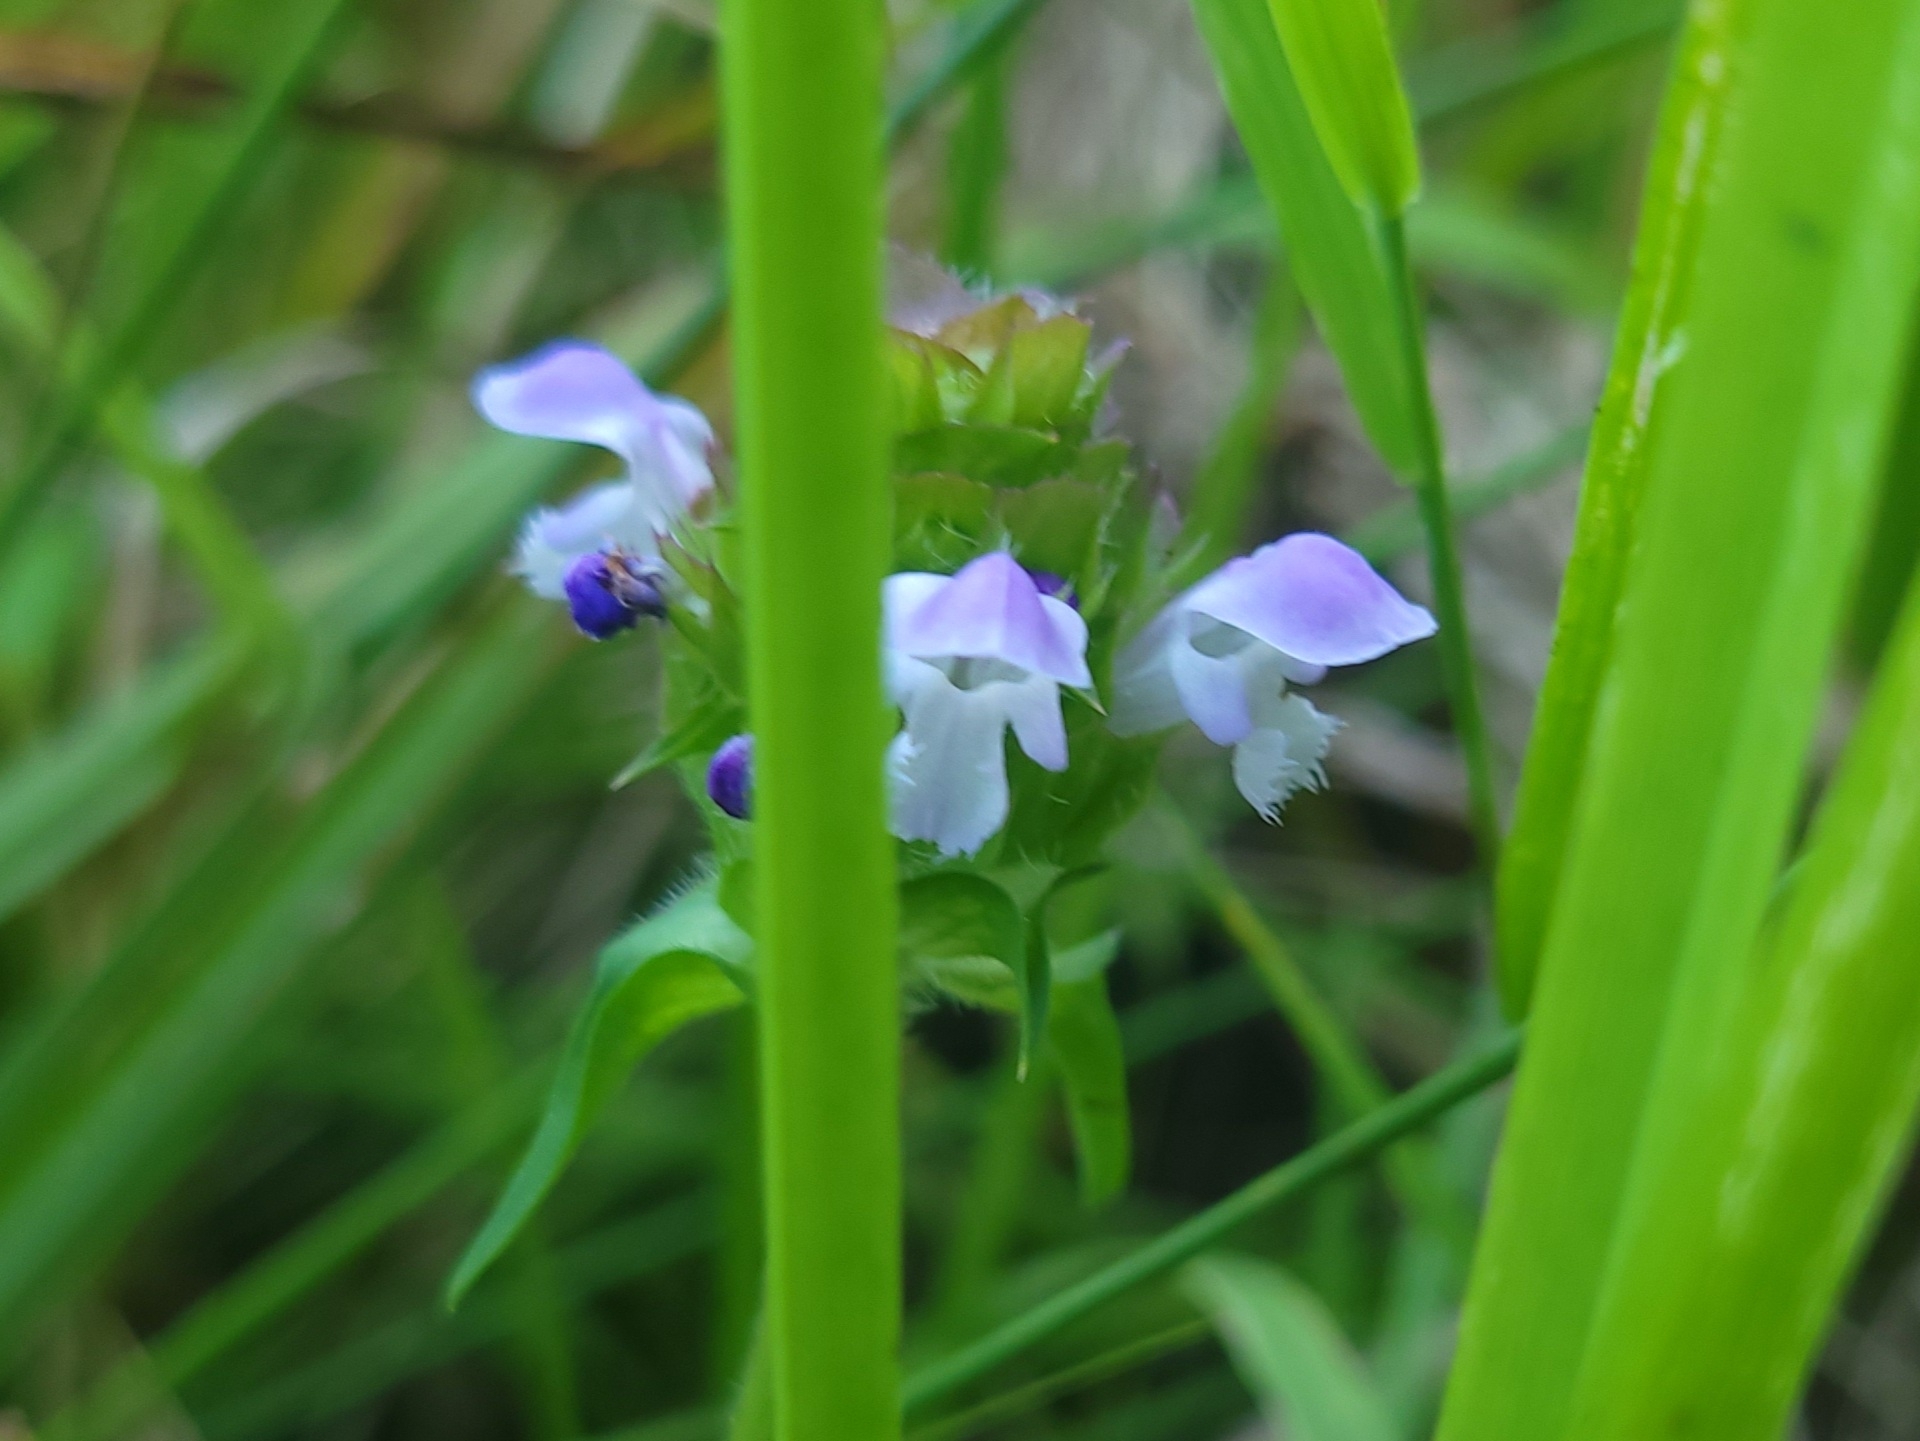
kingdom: Plantae
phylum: Tracheophyta
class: Magnoliopsida
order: Lamiales
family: Lamiaceae
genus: Prunella
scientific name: Prunella vulgaris
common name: Heal-all
